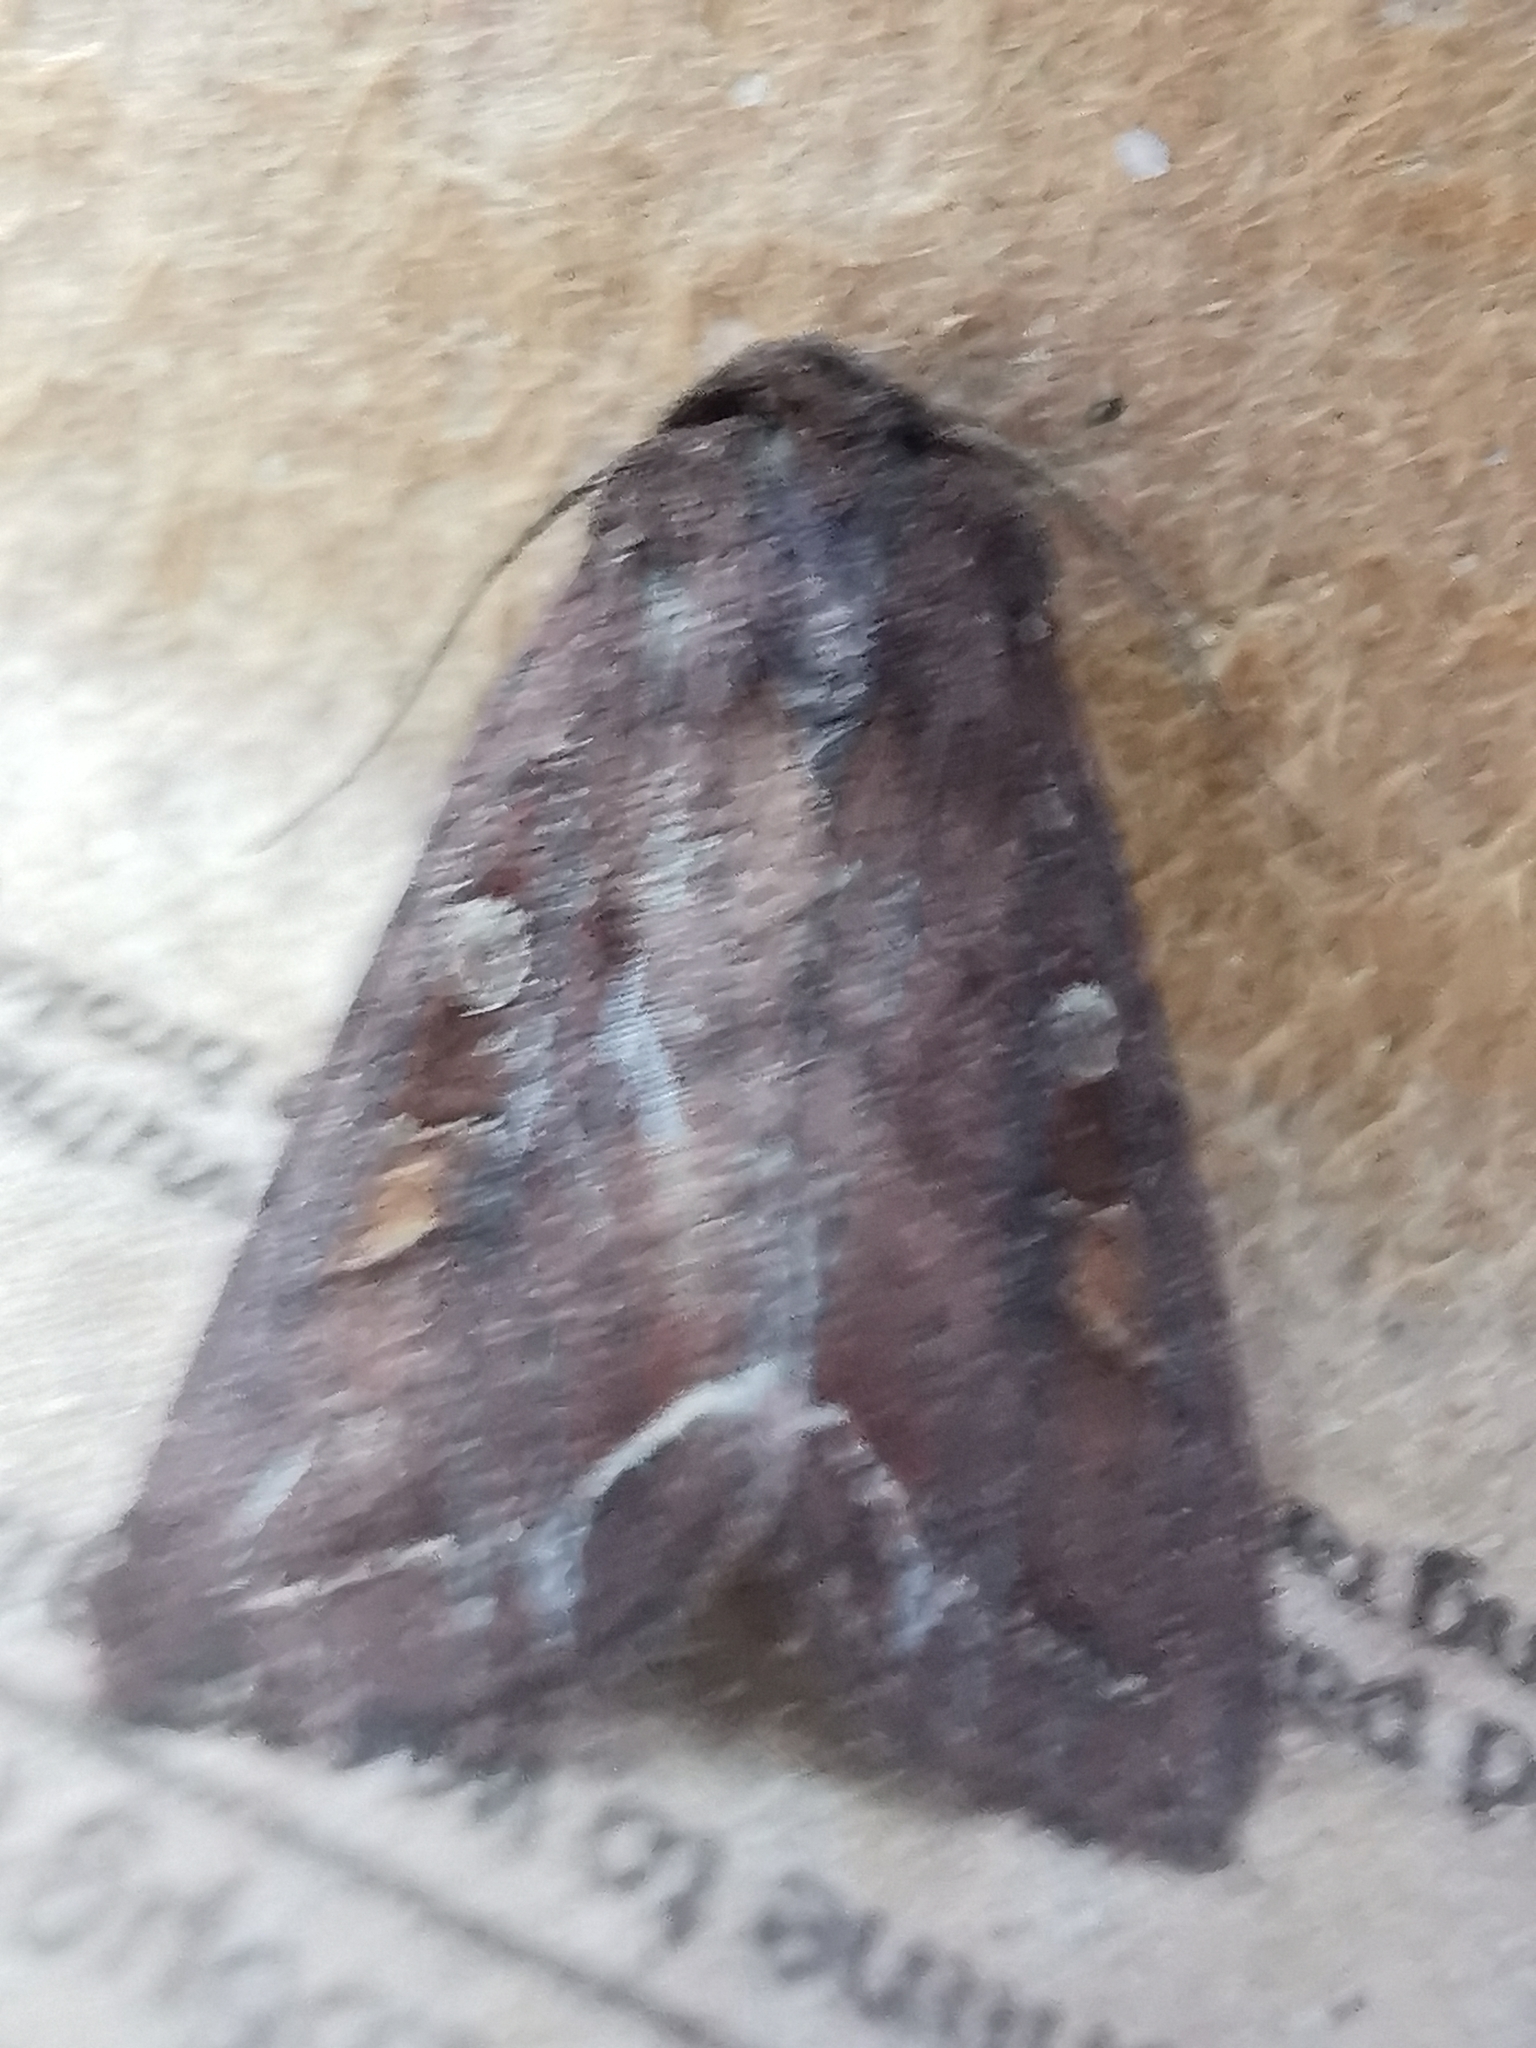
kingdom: Animalia
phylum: Arthropoda
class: Insecta
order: Lepidoptera
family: Noctuidae
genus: Lacanobia
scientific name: Lacanobia oleracea
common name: Bright-line brown-eye
